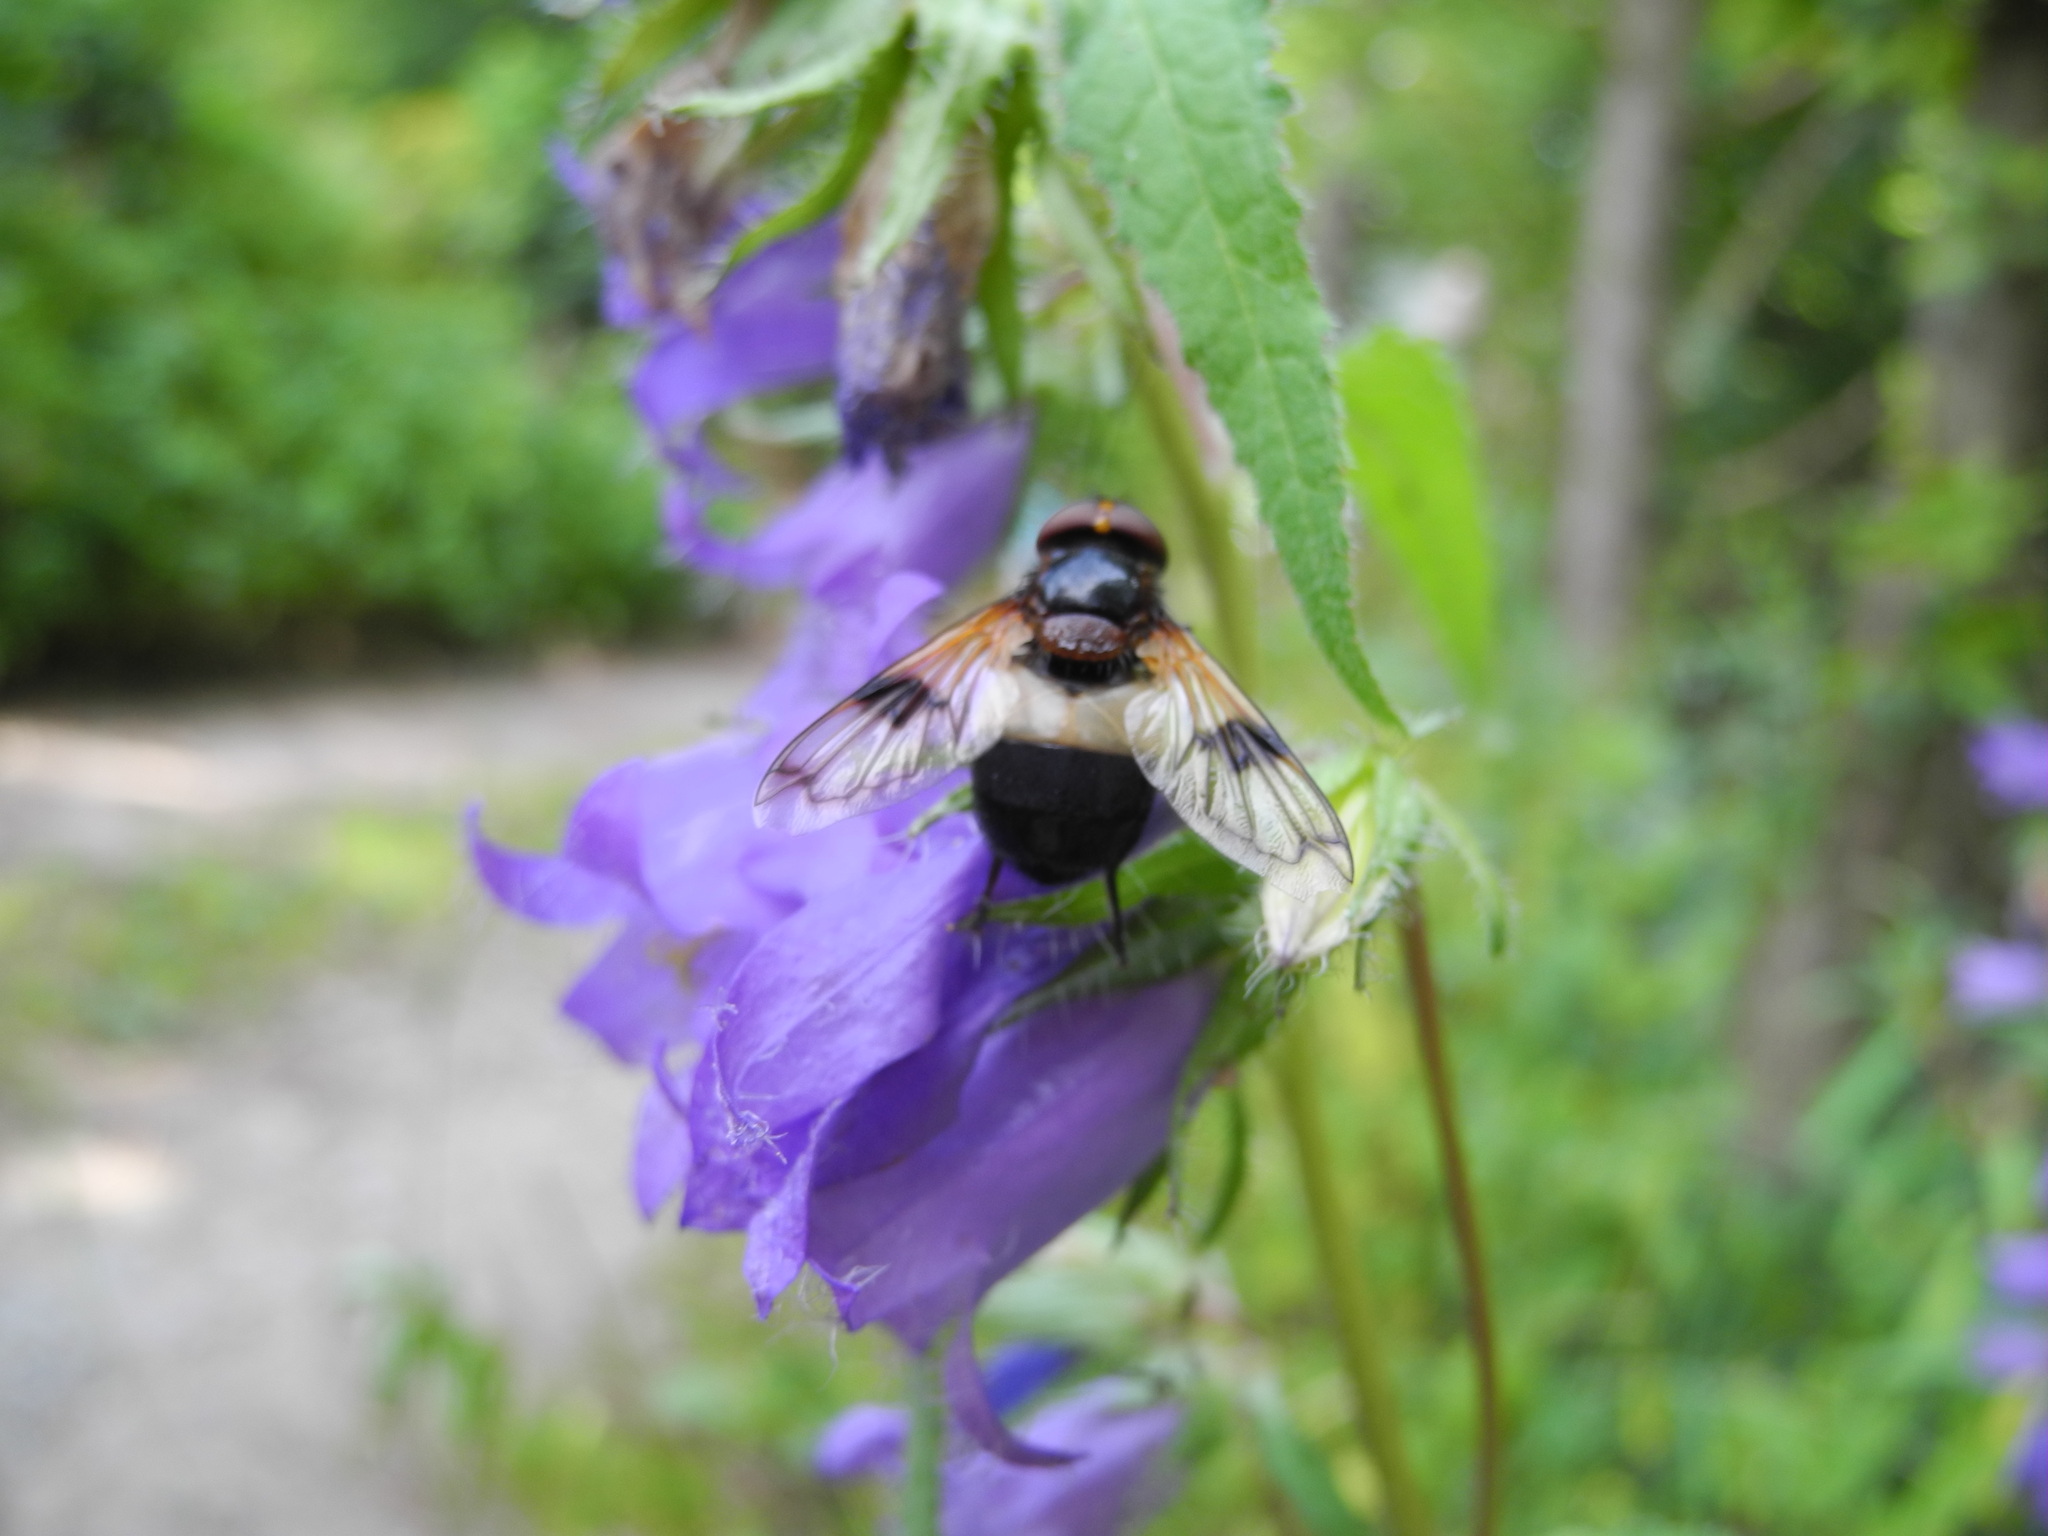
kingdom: Animalia
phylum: Arthropoda
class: Insecta
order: Diptera
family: Syrphidae
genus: Volucella
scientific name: Volucella pellucens
